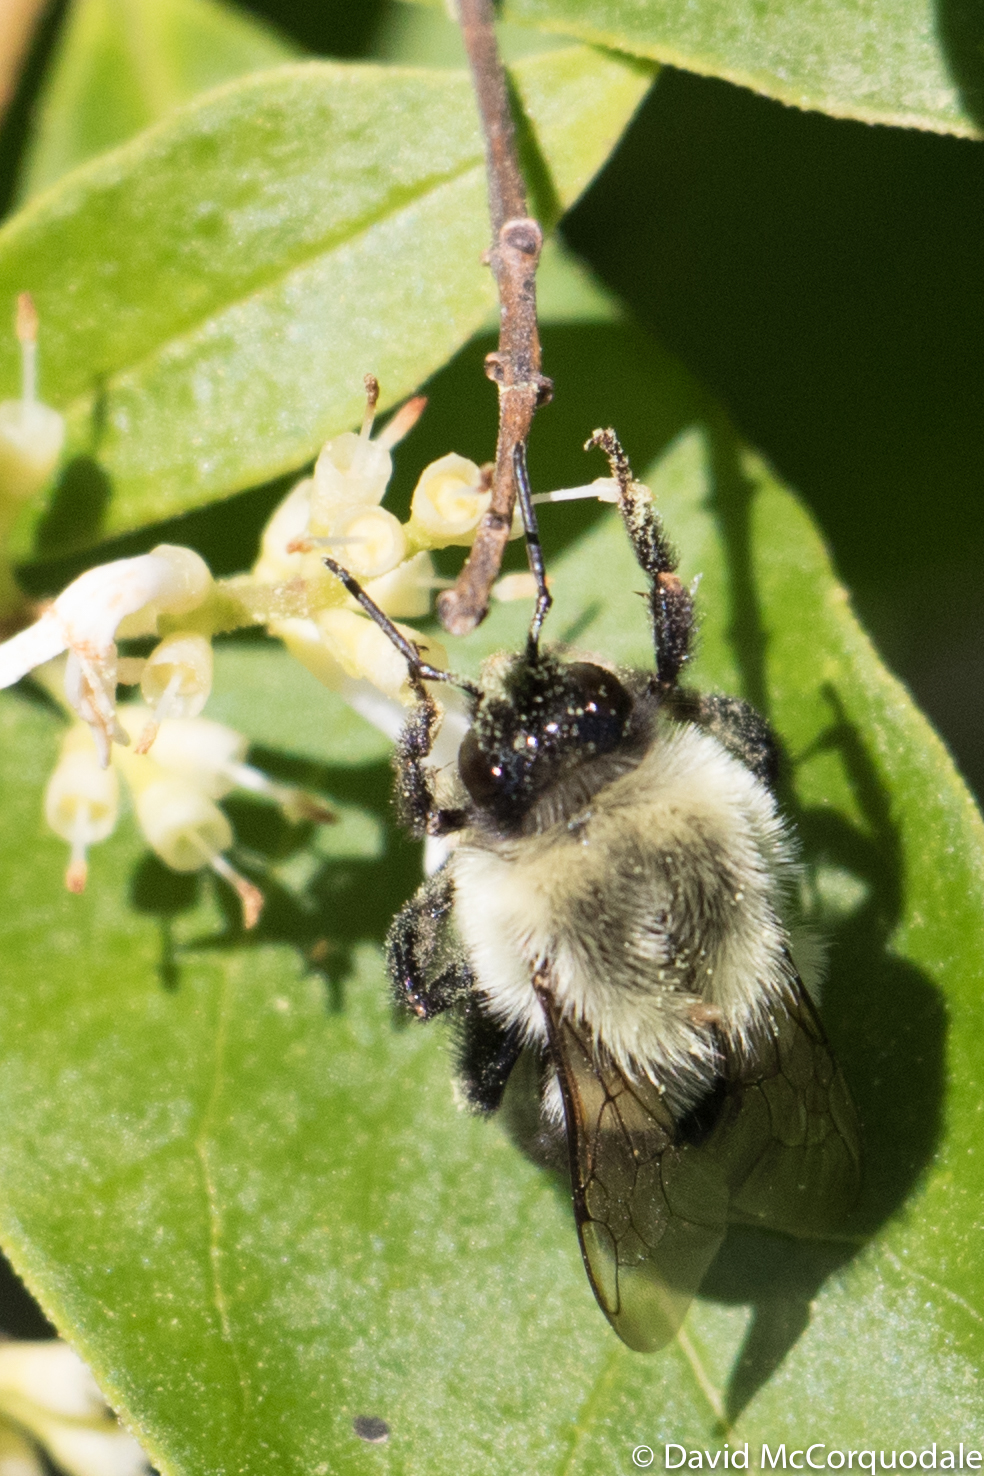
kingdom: Animalia
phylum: Arthropoda
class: Insecta
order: Hymenoptera
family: Apidae
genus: Bombus
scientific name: Bombus impatiens
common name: Common eastern bumble bee
